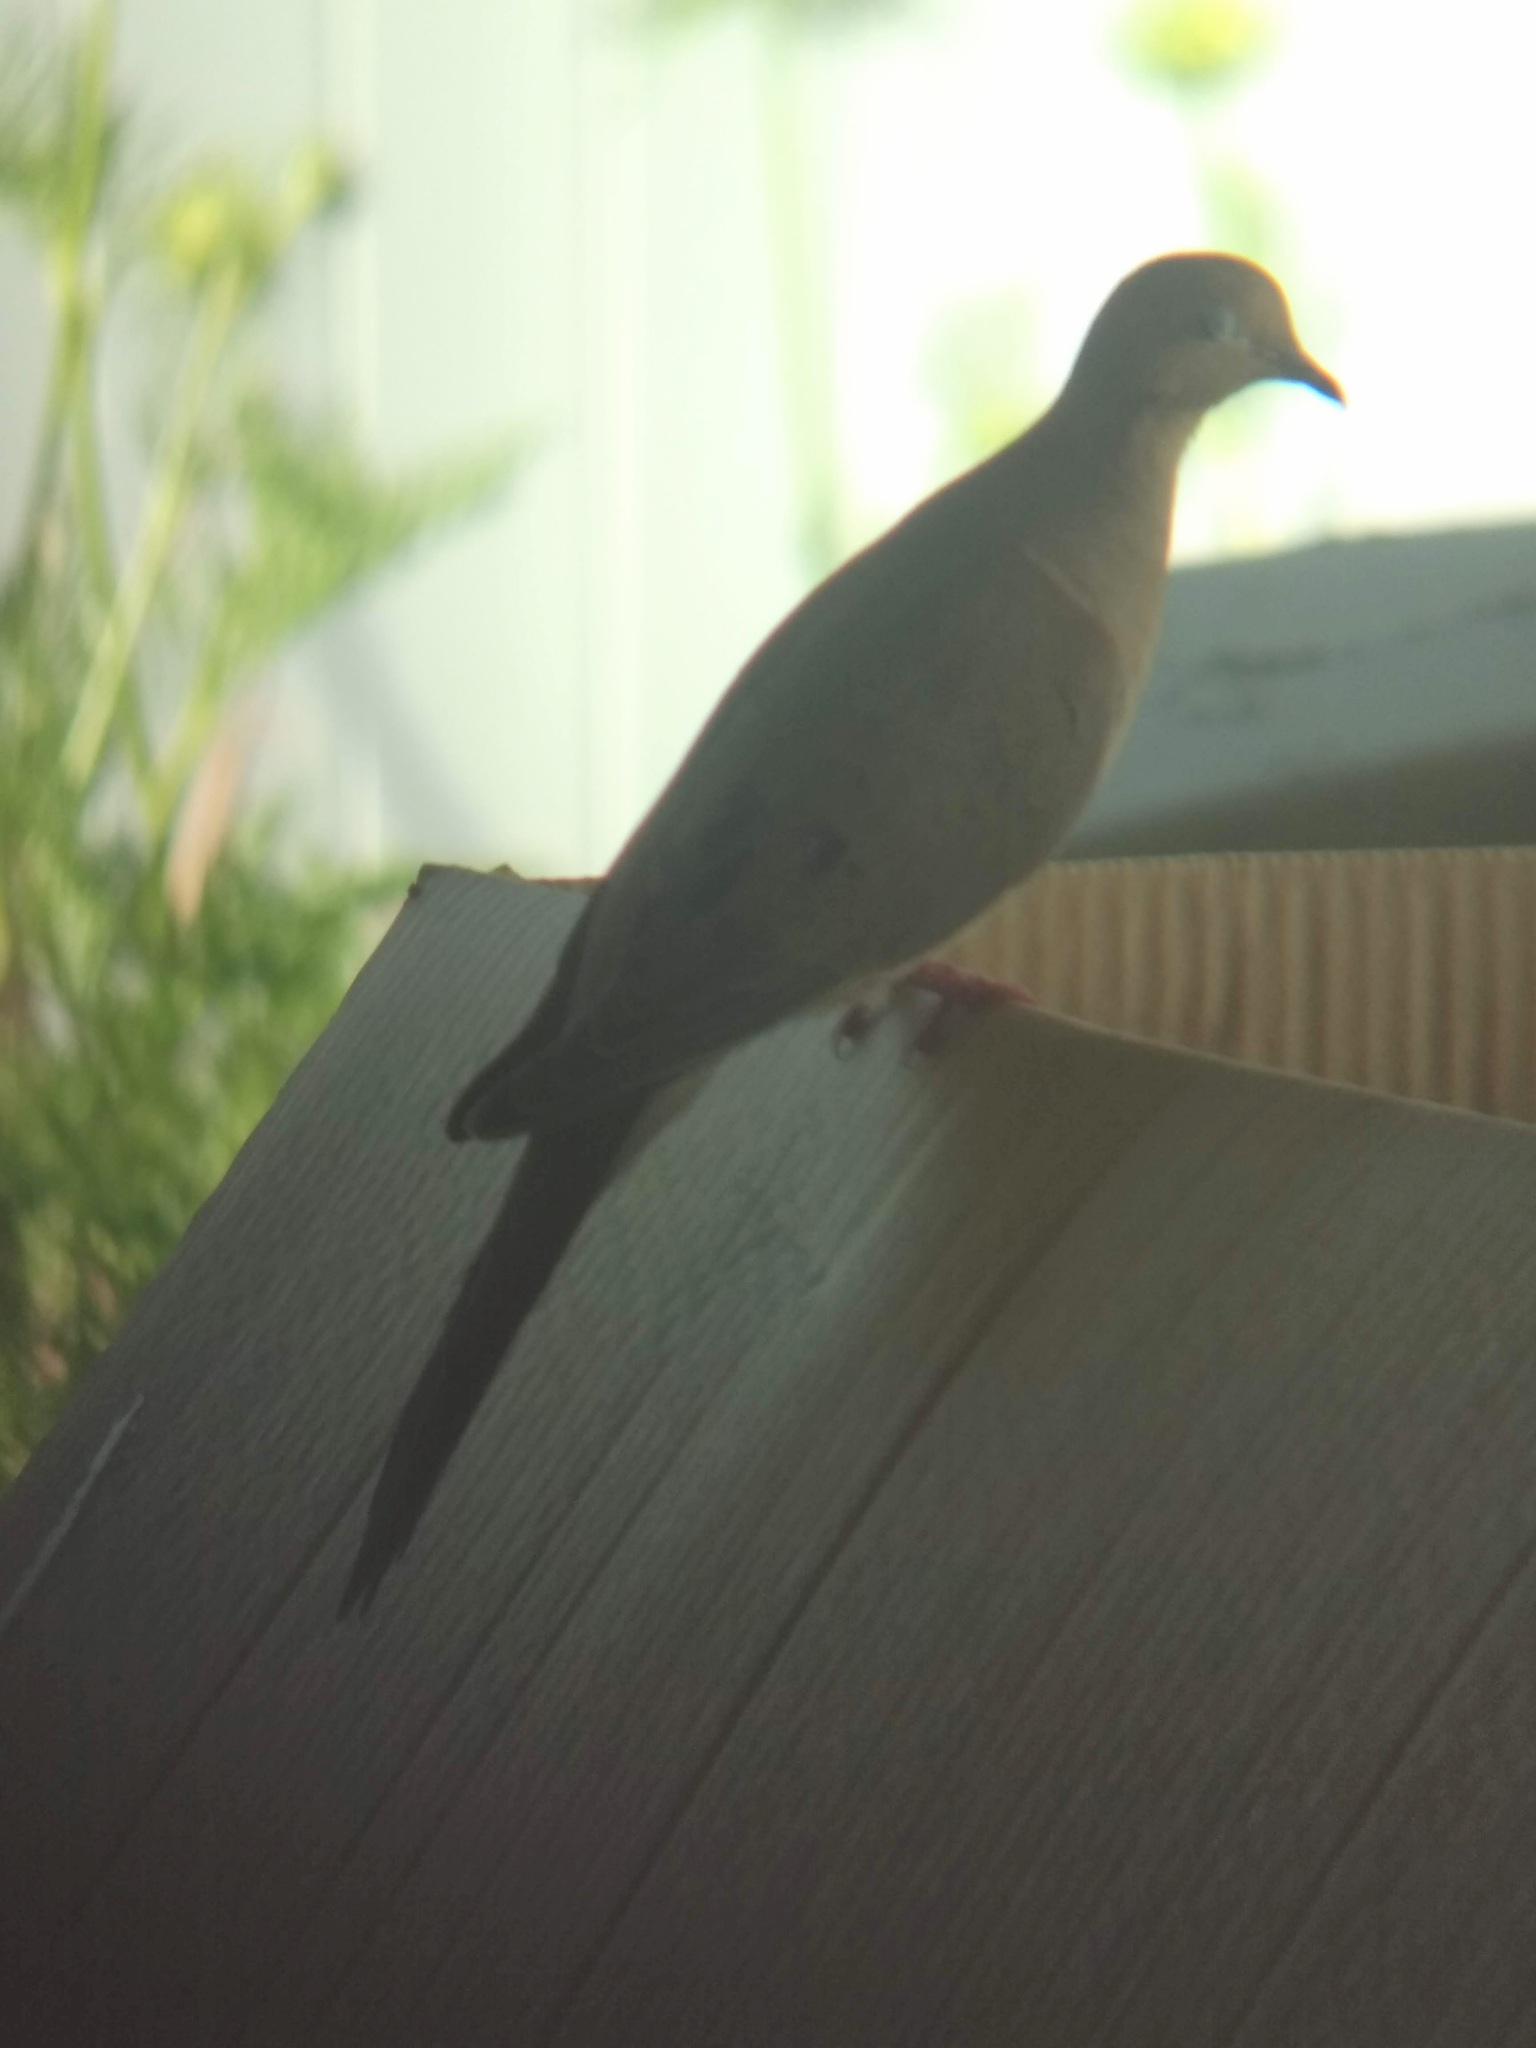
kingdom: Animalia
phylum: Chordata
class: Aves
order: Columbiformes
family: Columbidae
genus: Zenaida
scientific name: Zenaida macroura
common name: Mourning dove
